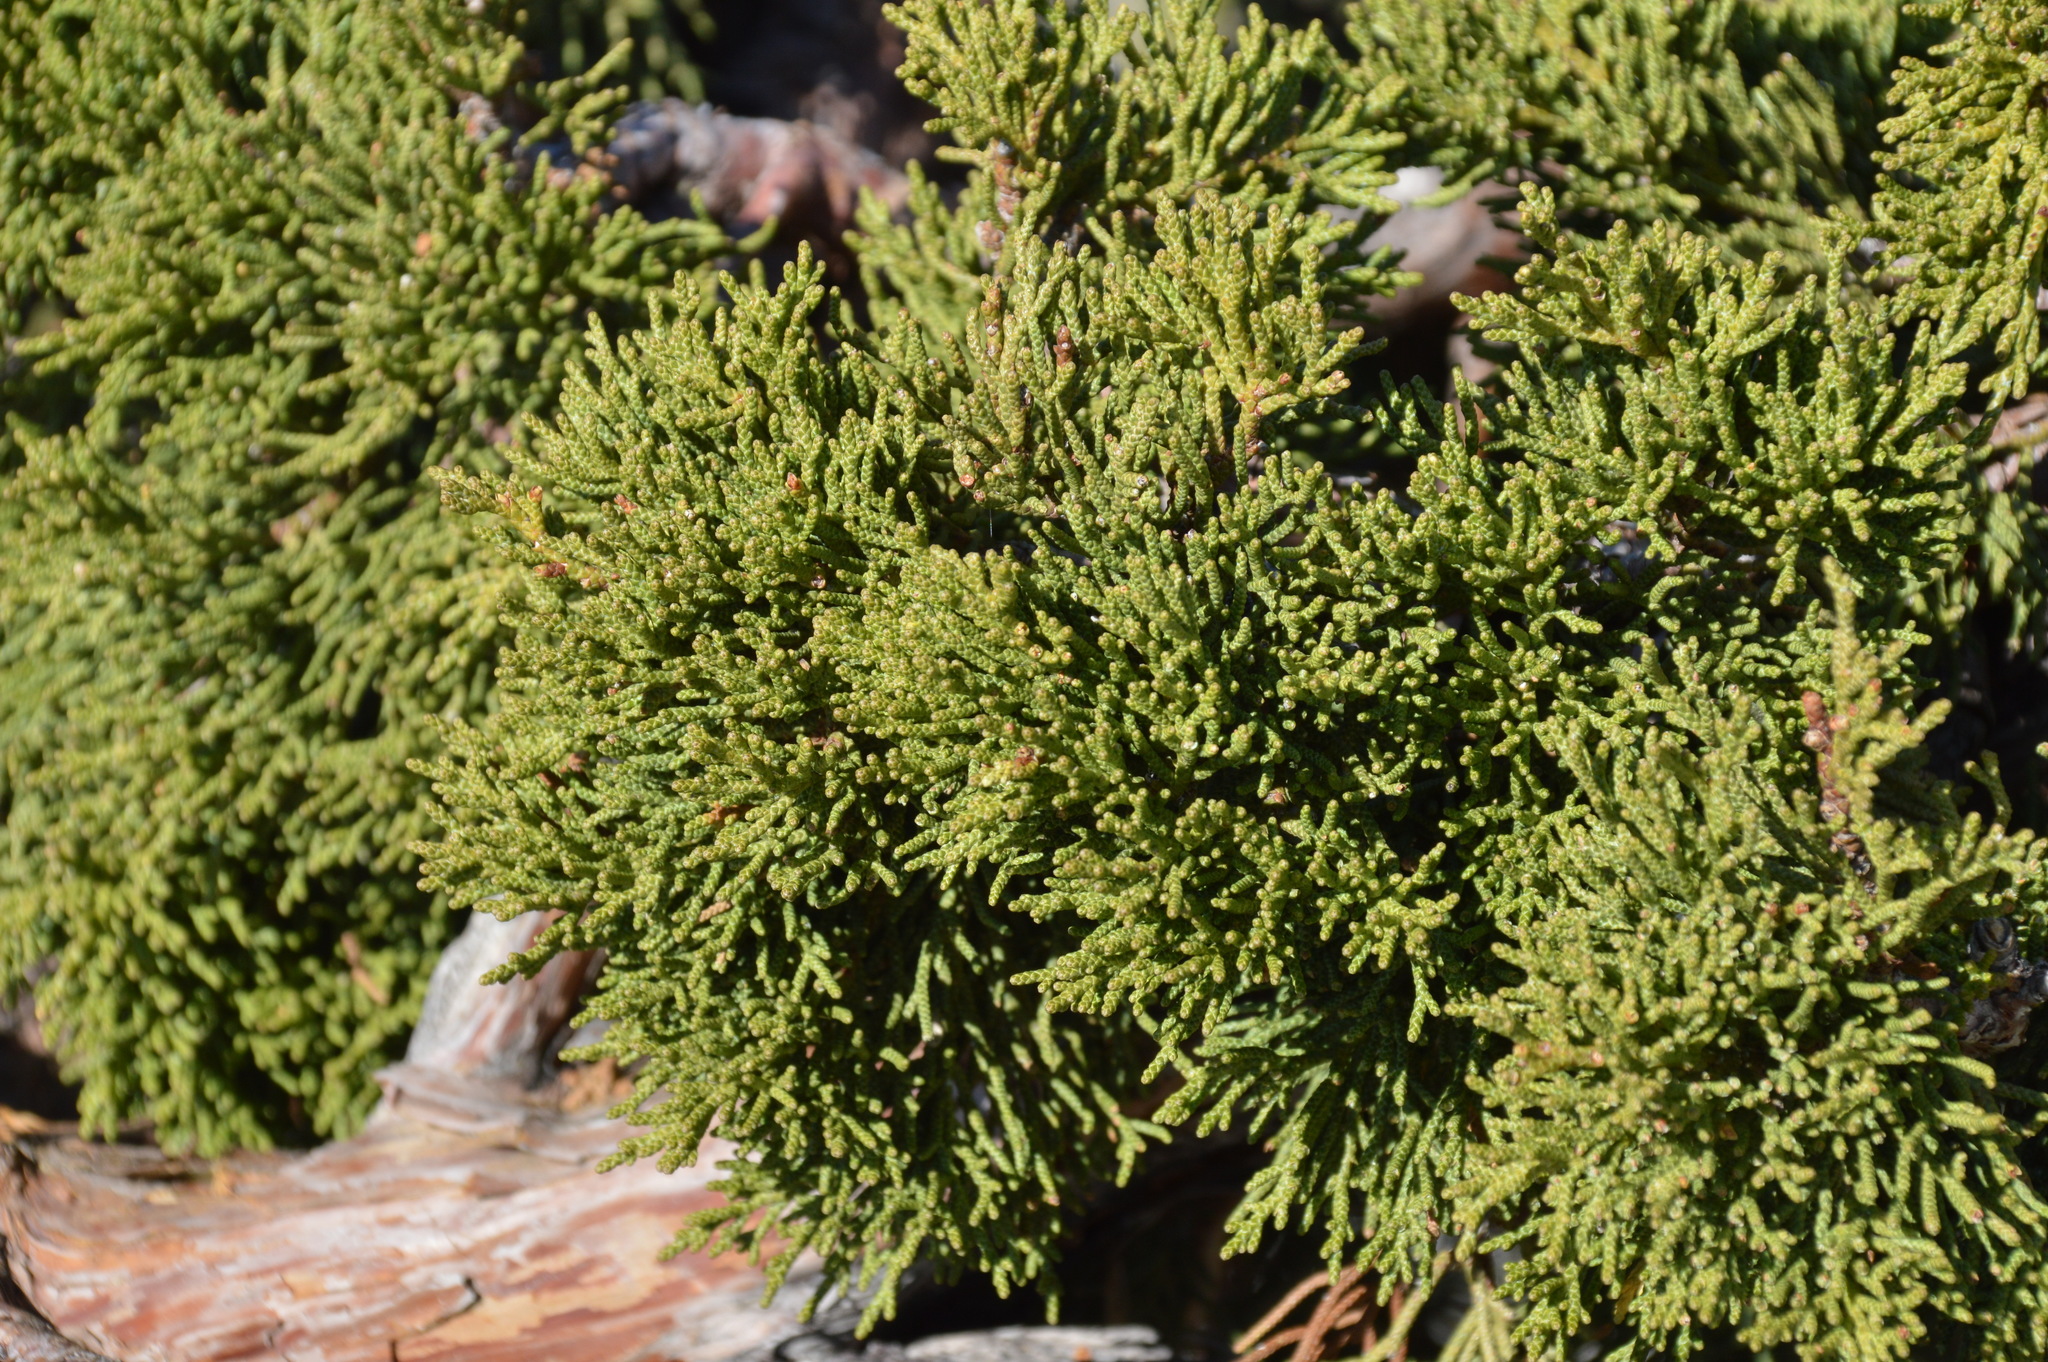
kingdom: Plantae
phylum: Tracheophyta
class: Pinopsida
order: Pinales
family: Cupressaceae
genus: Juniperus
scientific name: Juniperus occidentalis
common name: Western juniper
